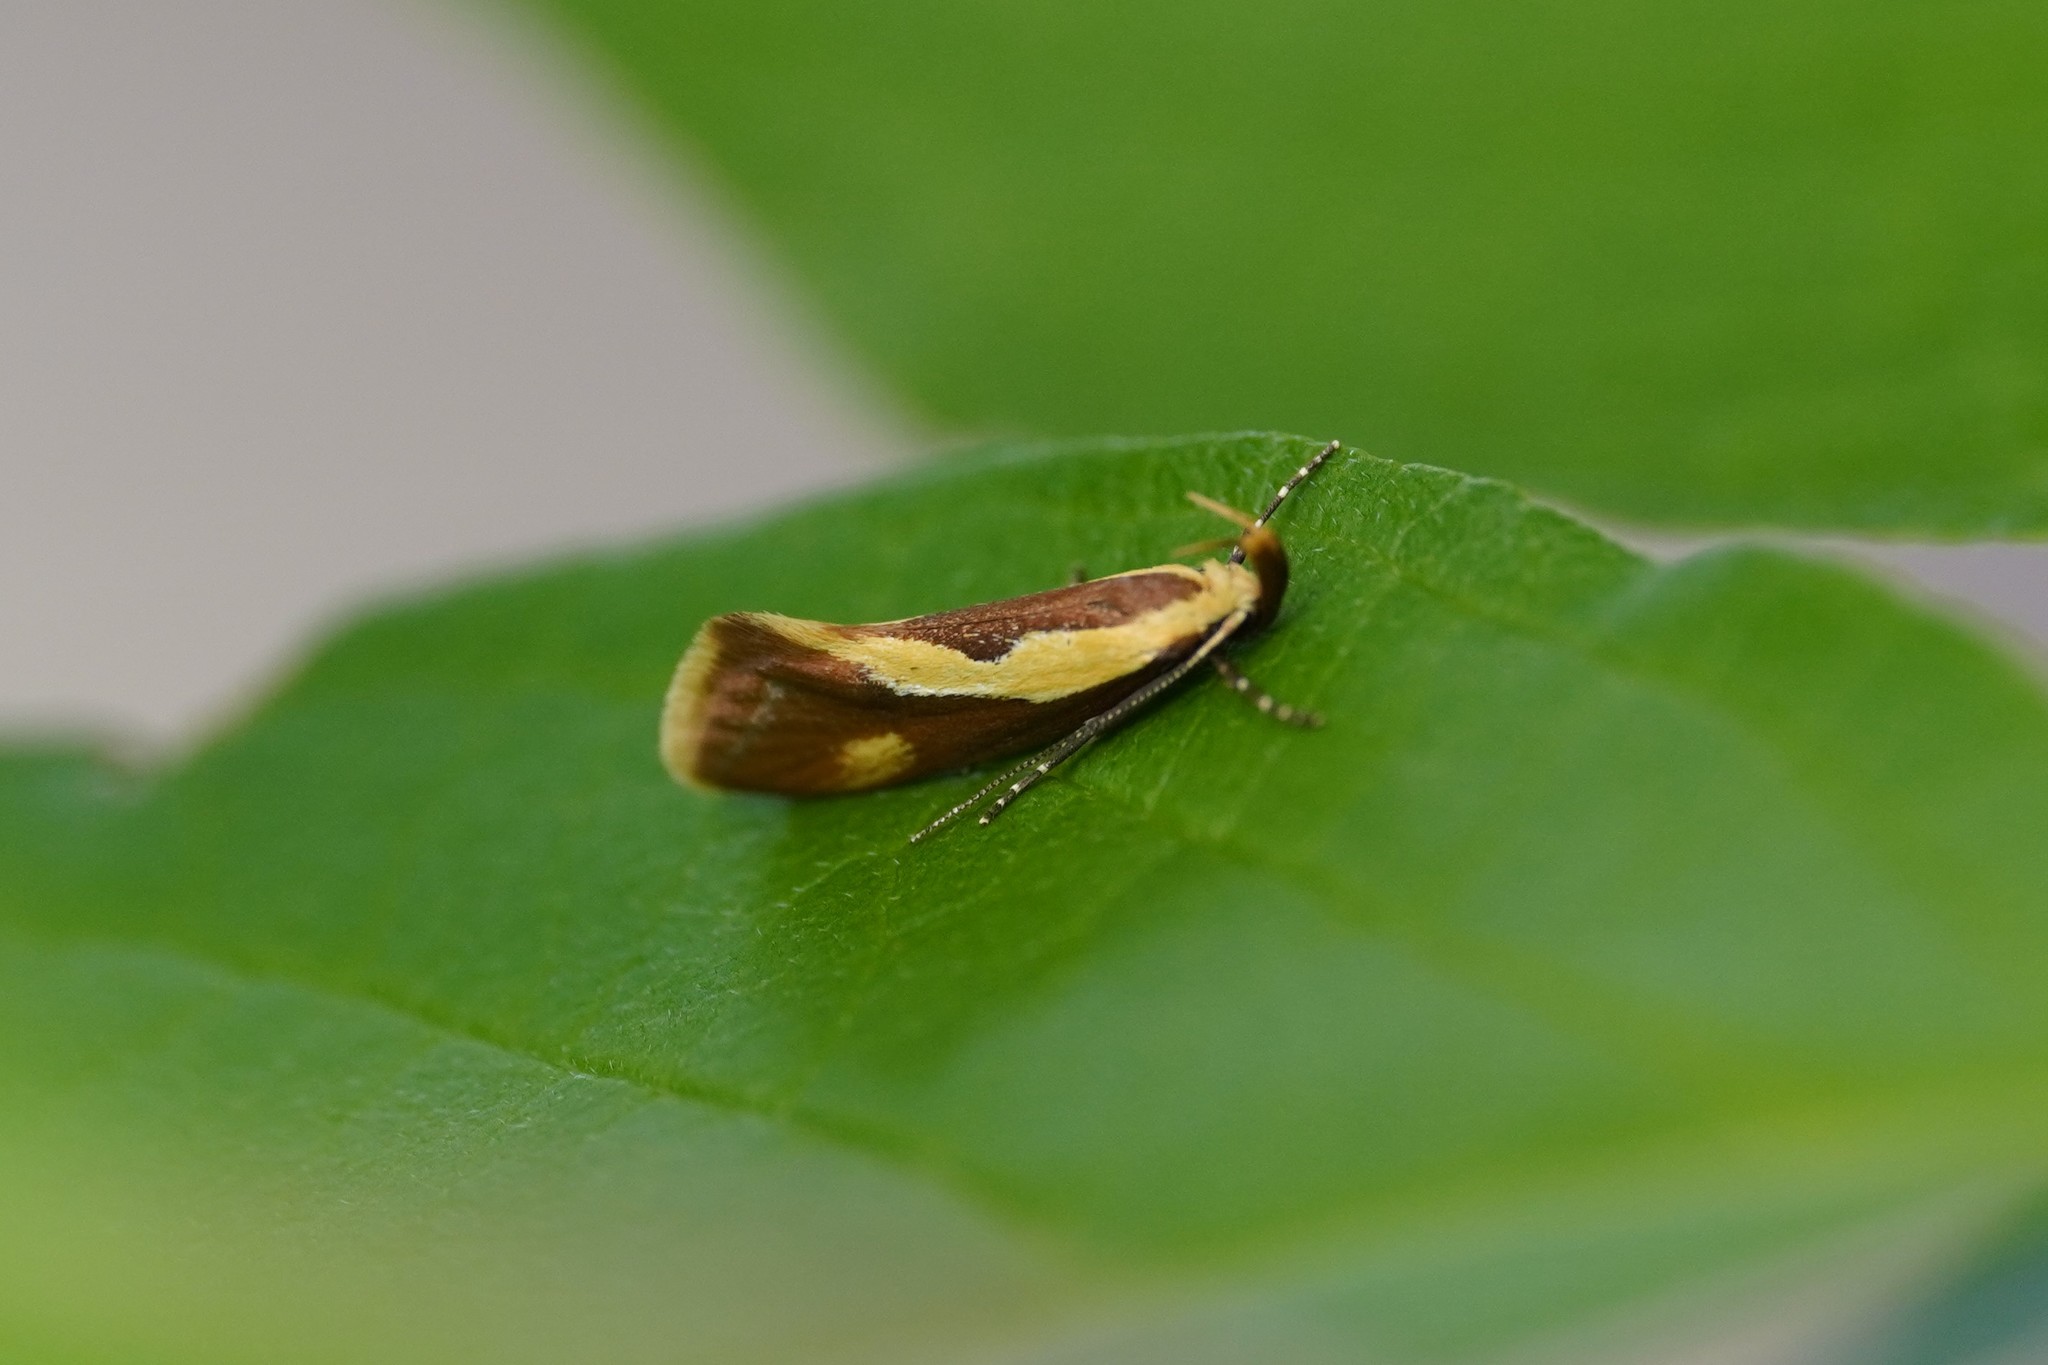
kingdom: Animalia
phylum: Arthropoda
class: Insecta
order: Lepidoptera
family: Oecophoridae
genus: Harpella
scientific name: Harpella forficella
